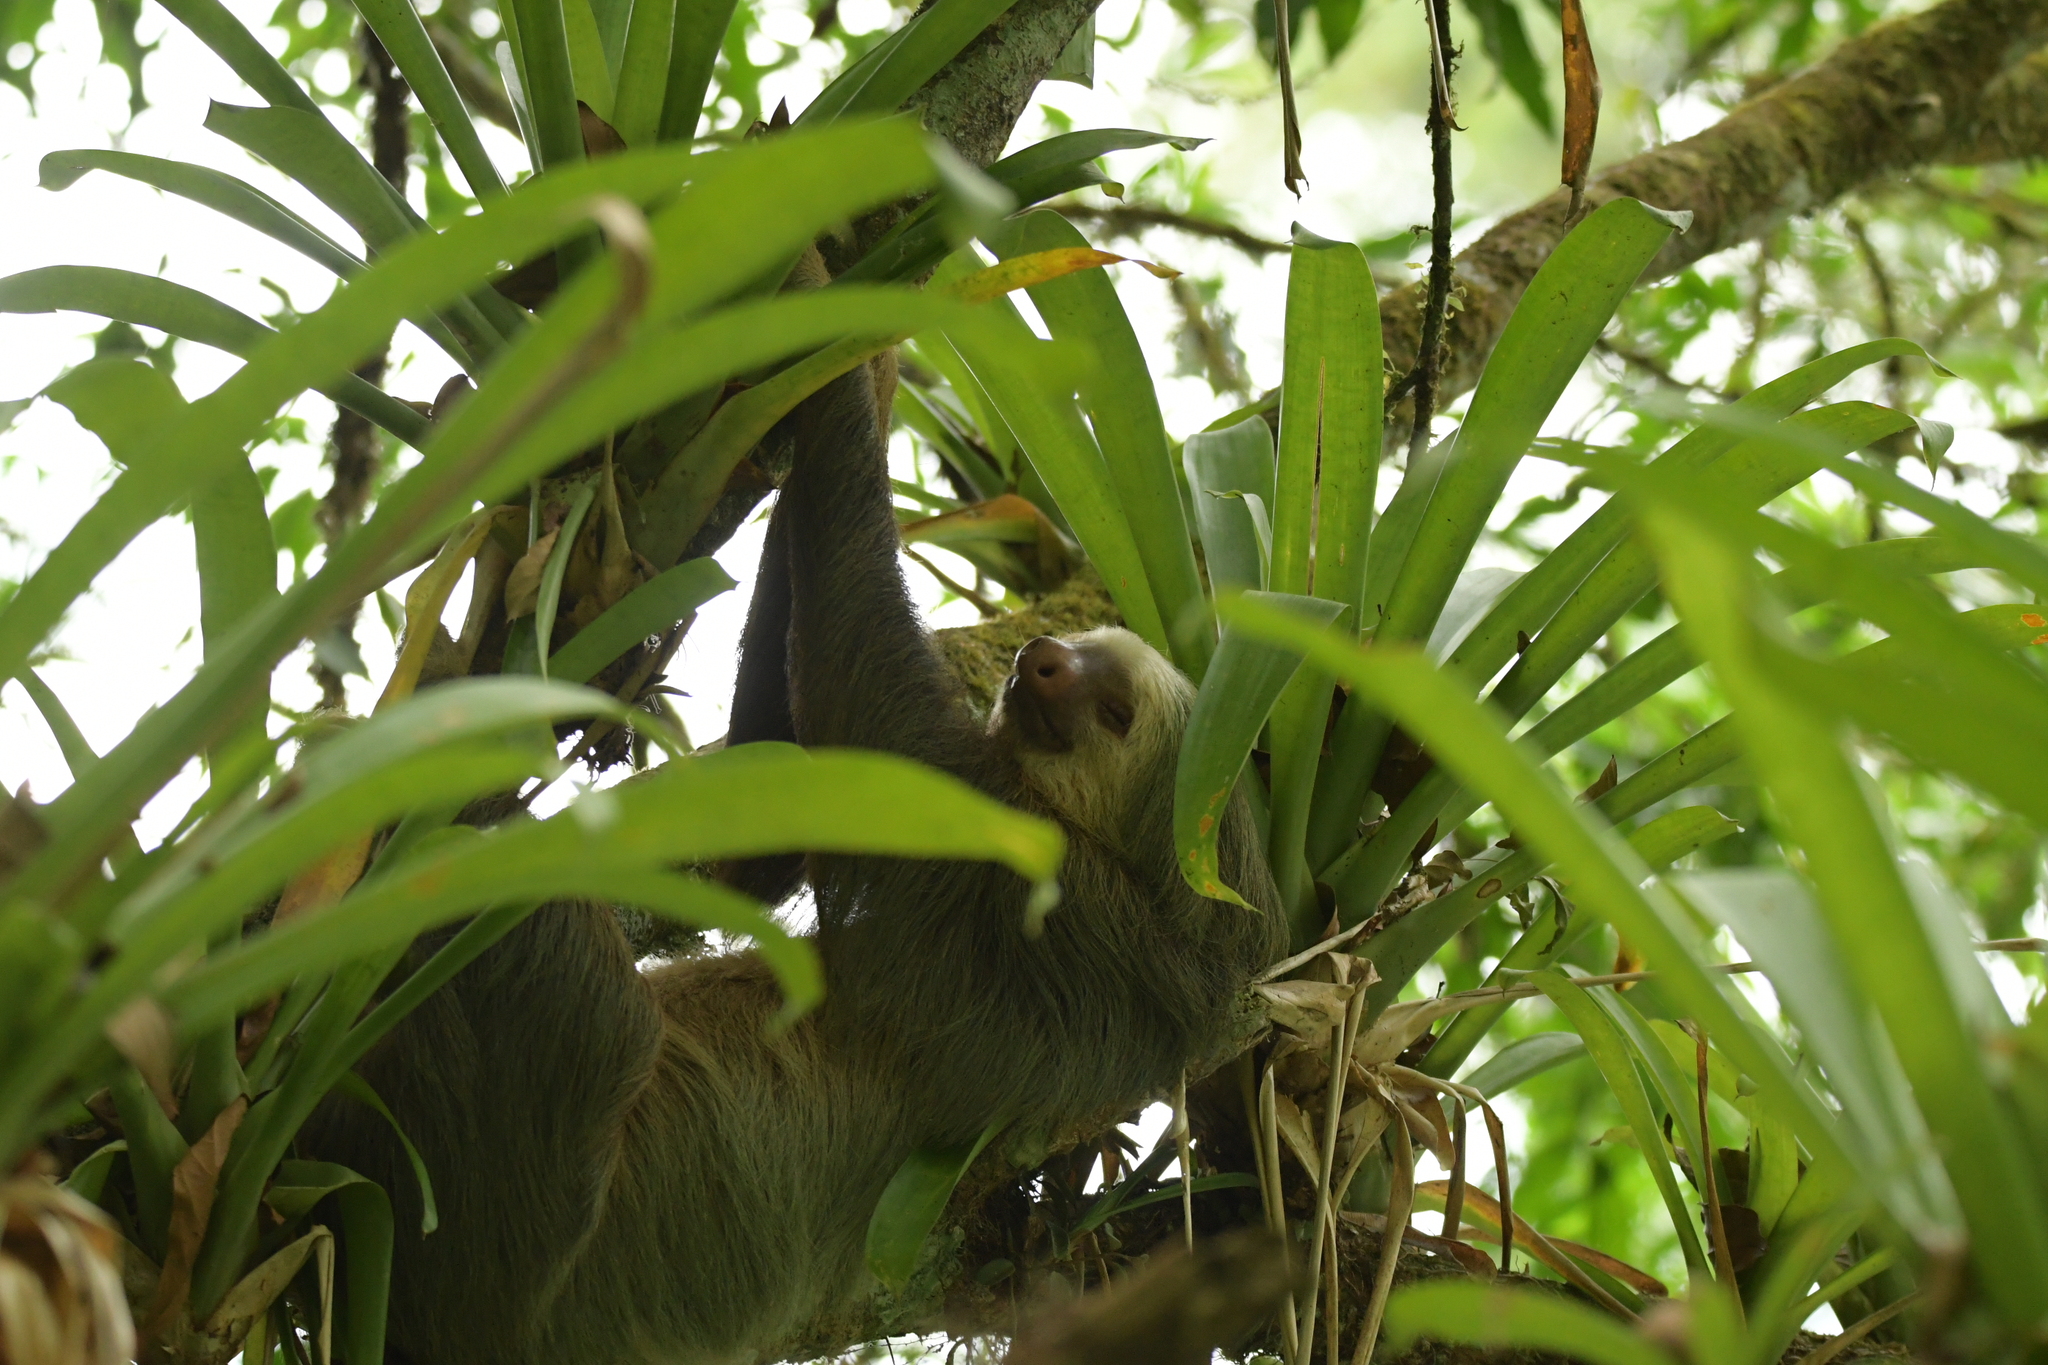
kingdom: Animalia
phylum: Chordata
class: Mammalia
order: Pilosa
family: Megalonychidae
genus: Choloepus
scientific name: Choloepus hoffmanni
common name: Hoffmann's two-toed sloth
